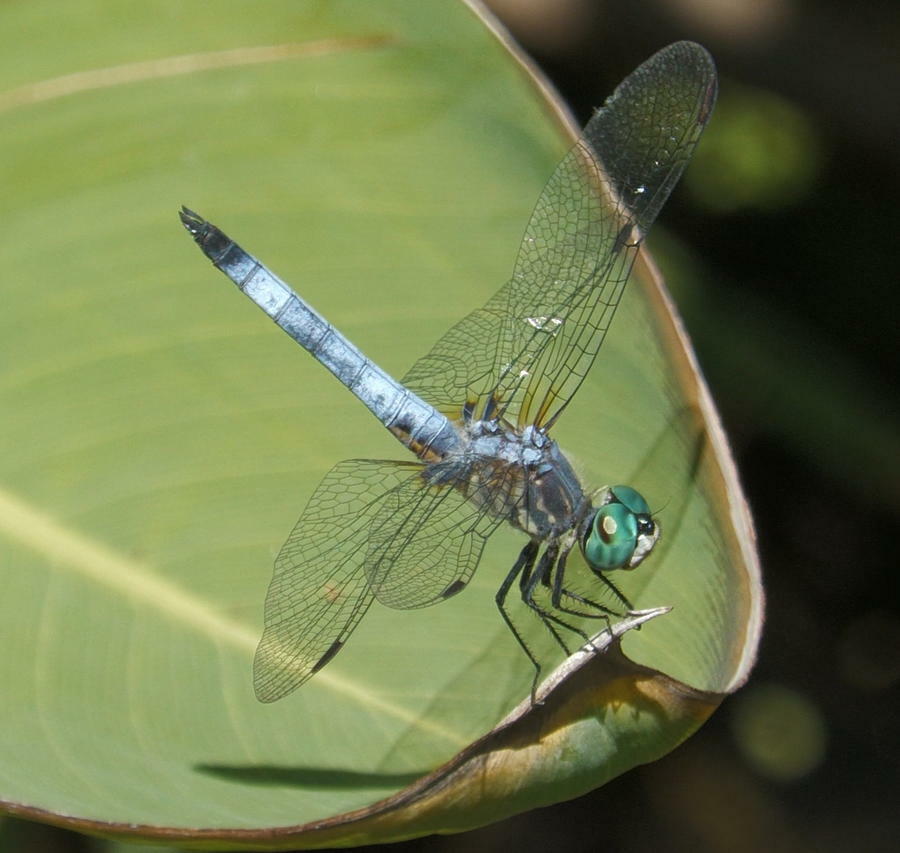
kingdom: Animalia
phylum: Arthropoda
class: Insecta
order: Odonata
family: Libellulidae
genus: Pachydiplax
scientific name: Pachydiplax longipennis
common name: Blue dasher
